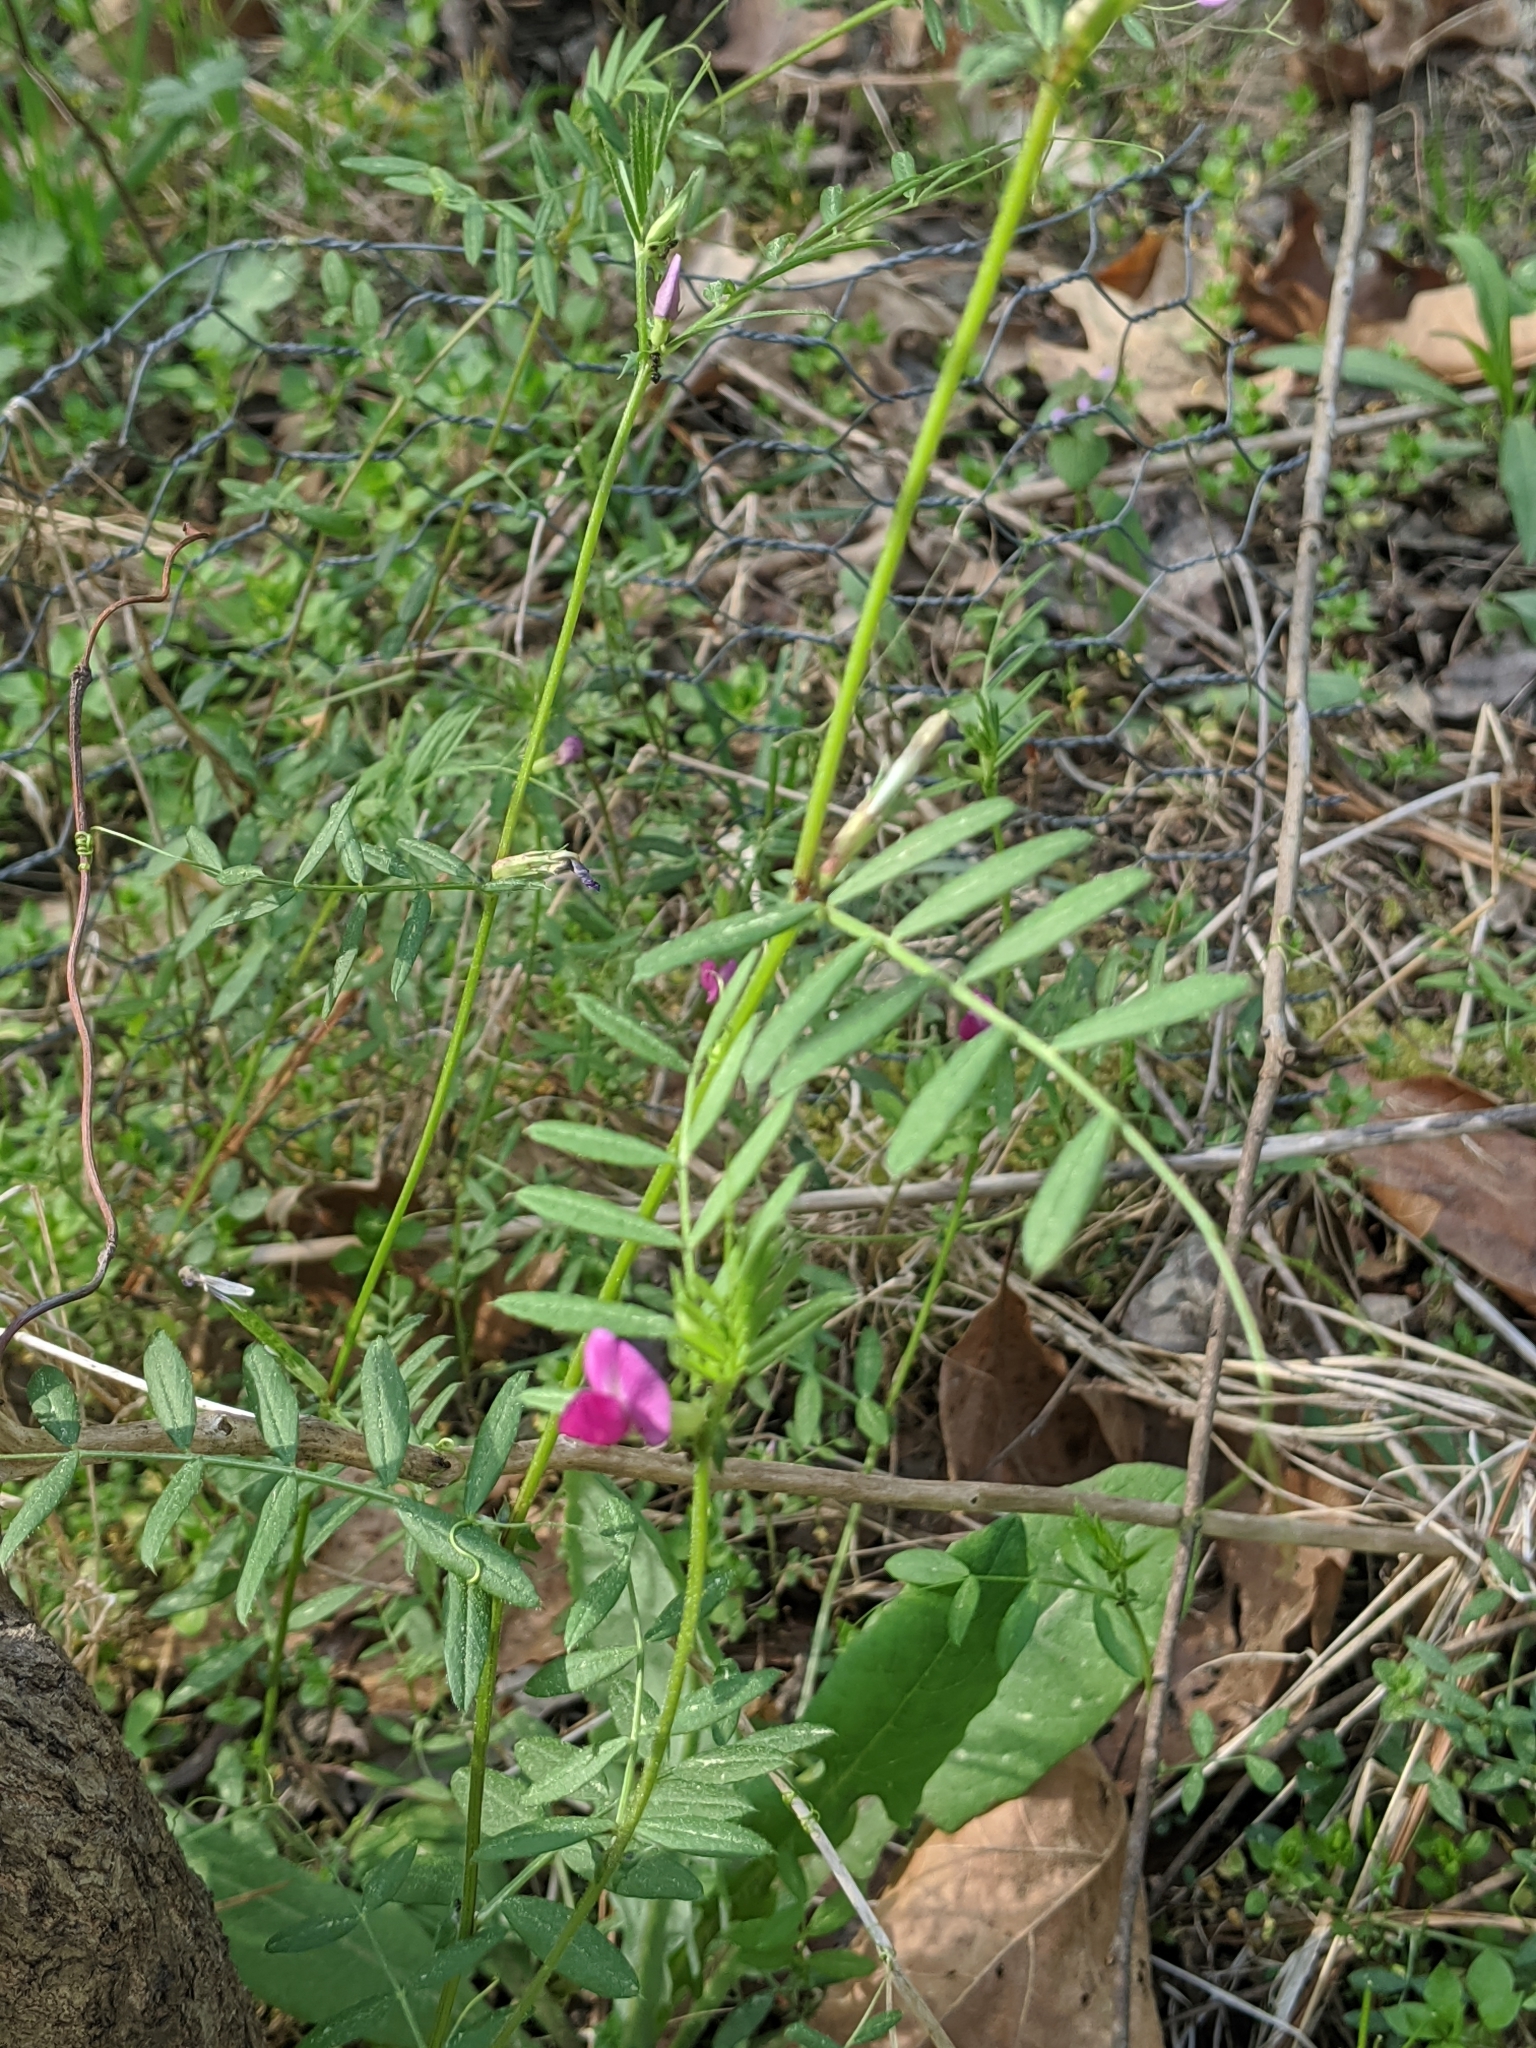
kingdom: Plantae
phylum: Tracheophyta
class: Magnoliopsida
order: Fabales
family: Fabaceae
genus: Vicia
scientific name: Vicia sativa
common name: Garden vetch
